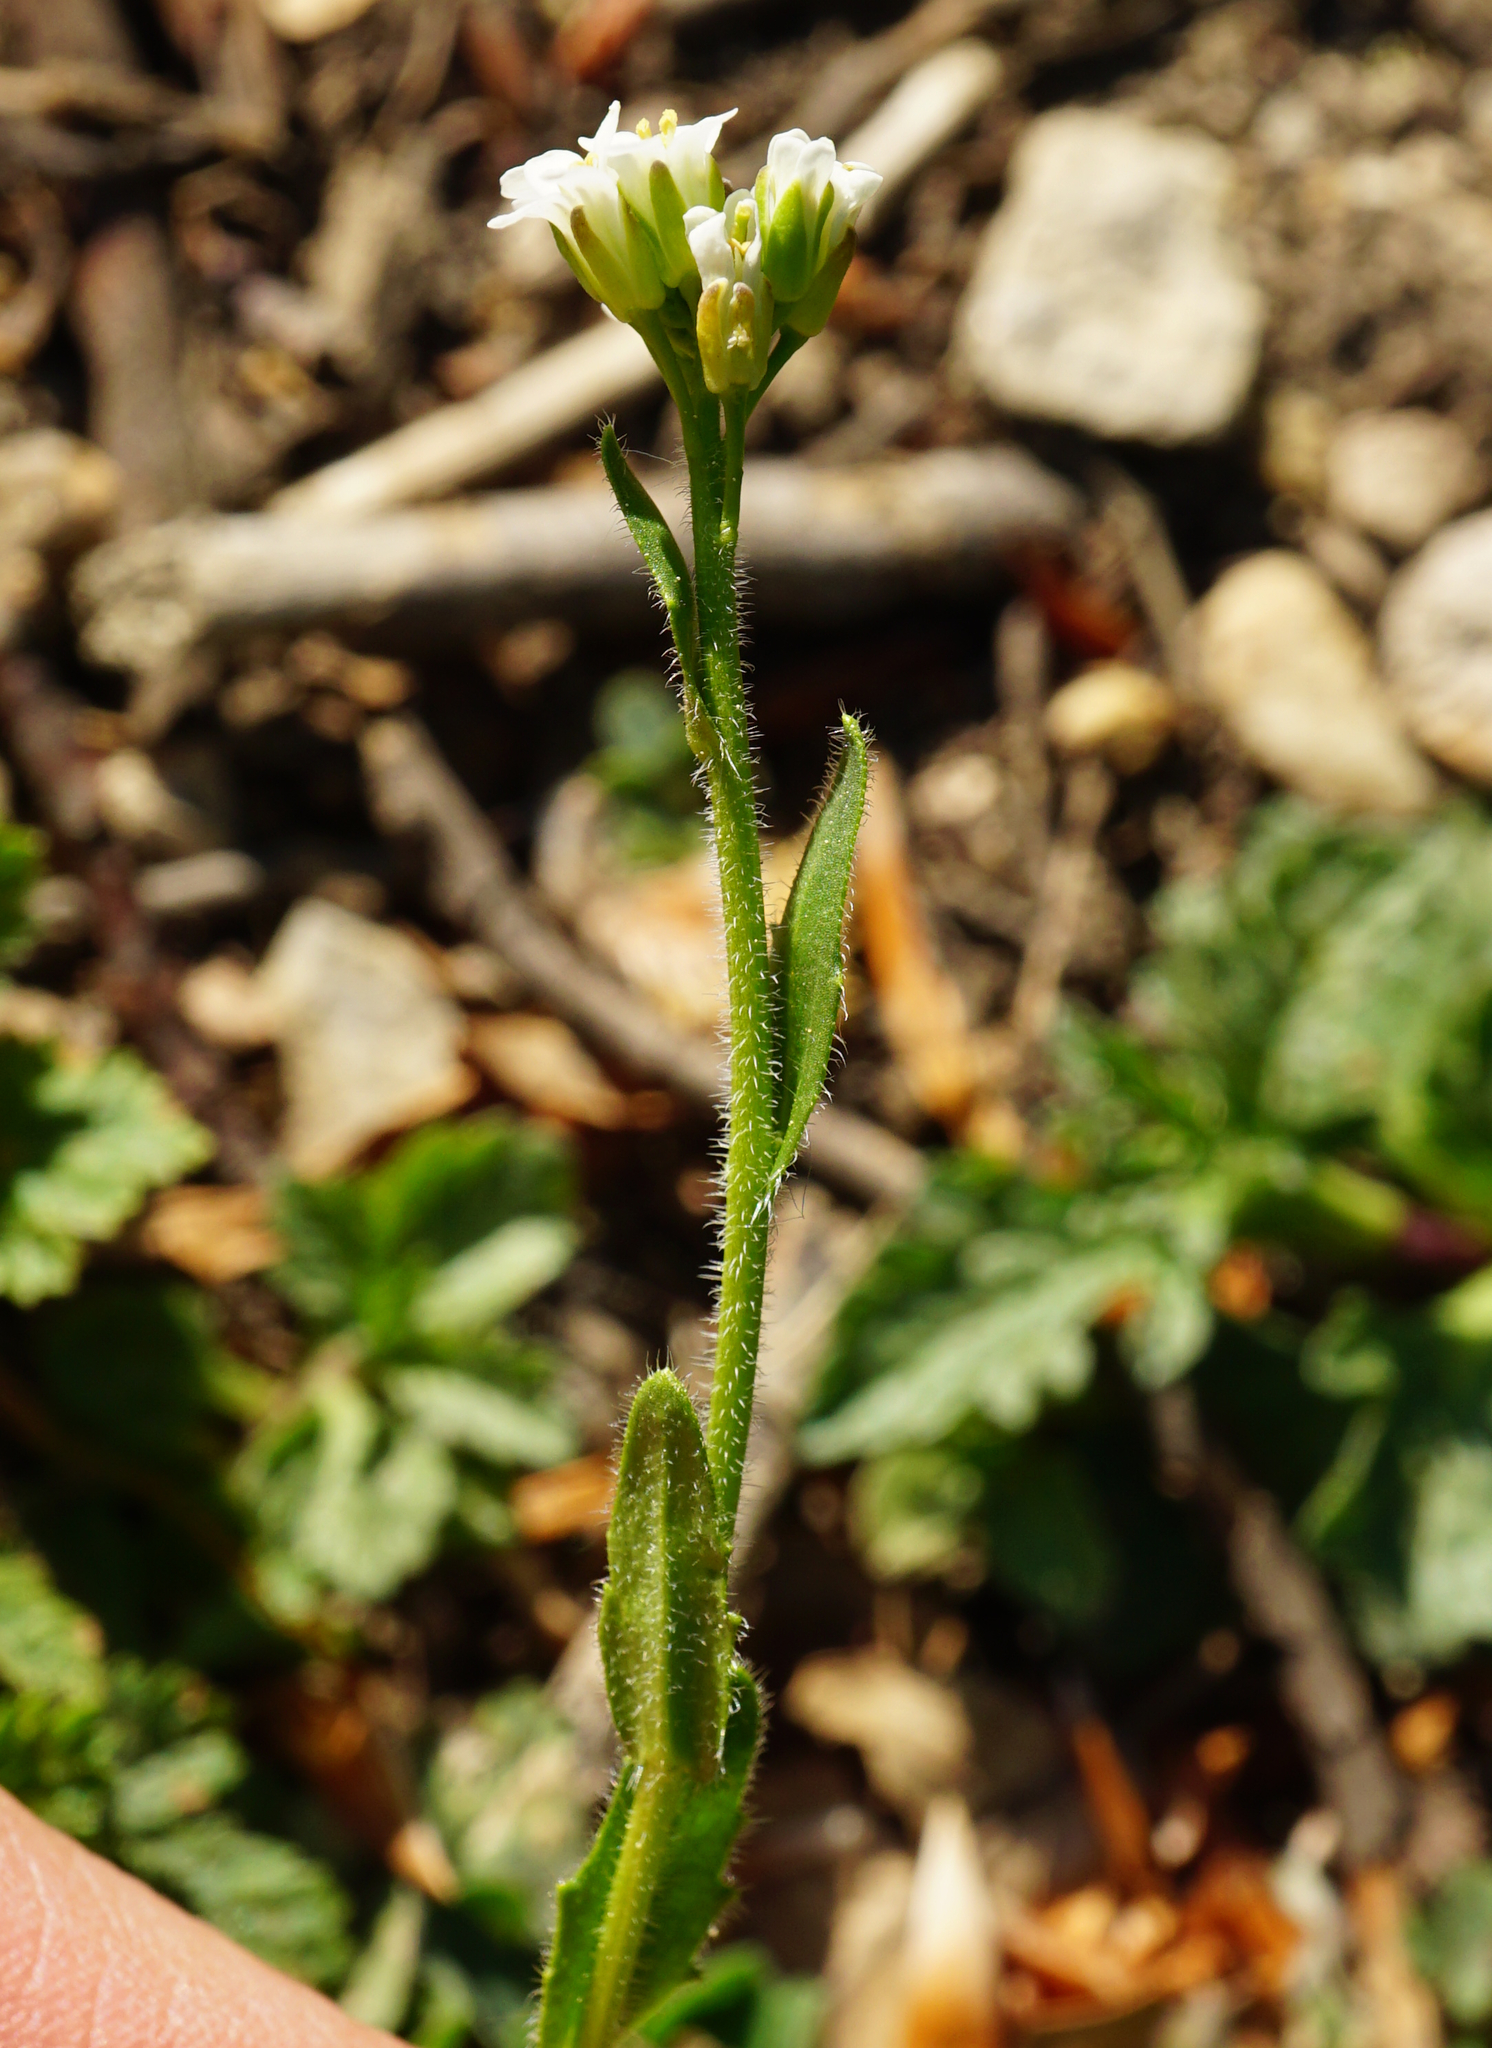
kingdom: Plantae
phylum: Tracheophyta
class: Magnoliopsida
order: Brassicales
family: Brassicaceae
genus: Arabis
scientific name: Arabis hirsuta
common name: Hairy rock-cress
